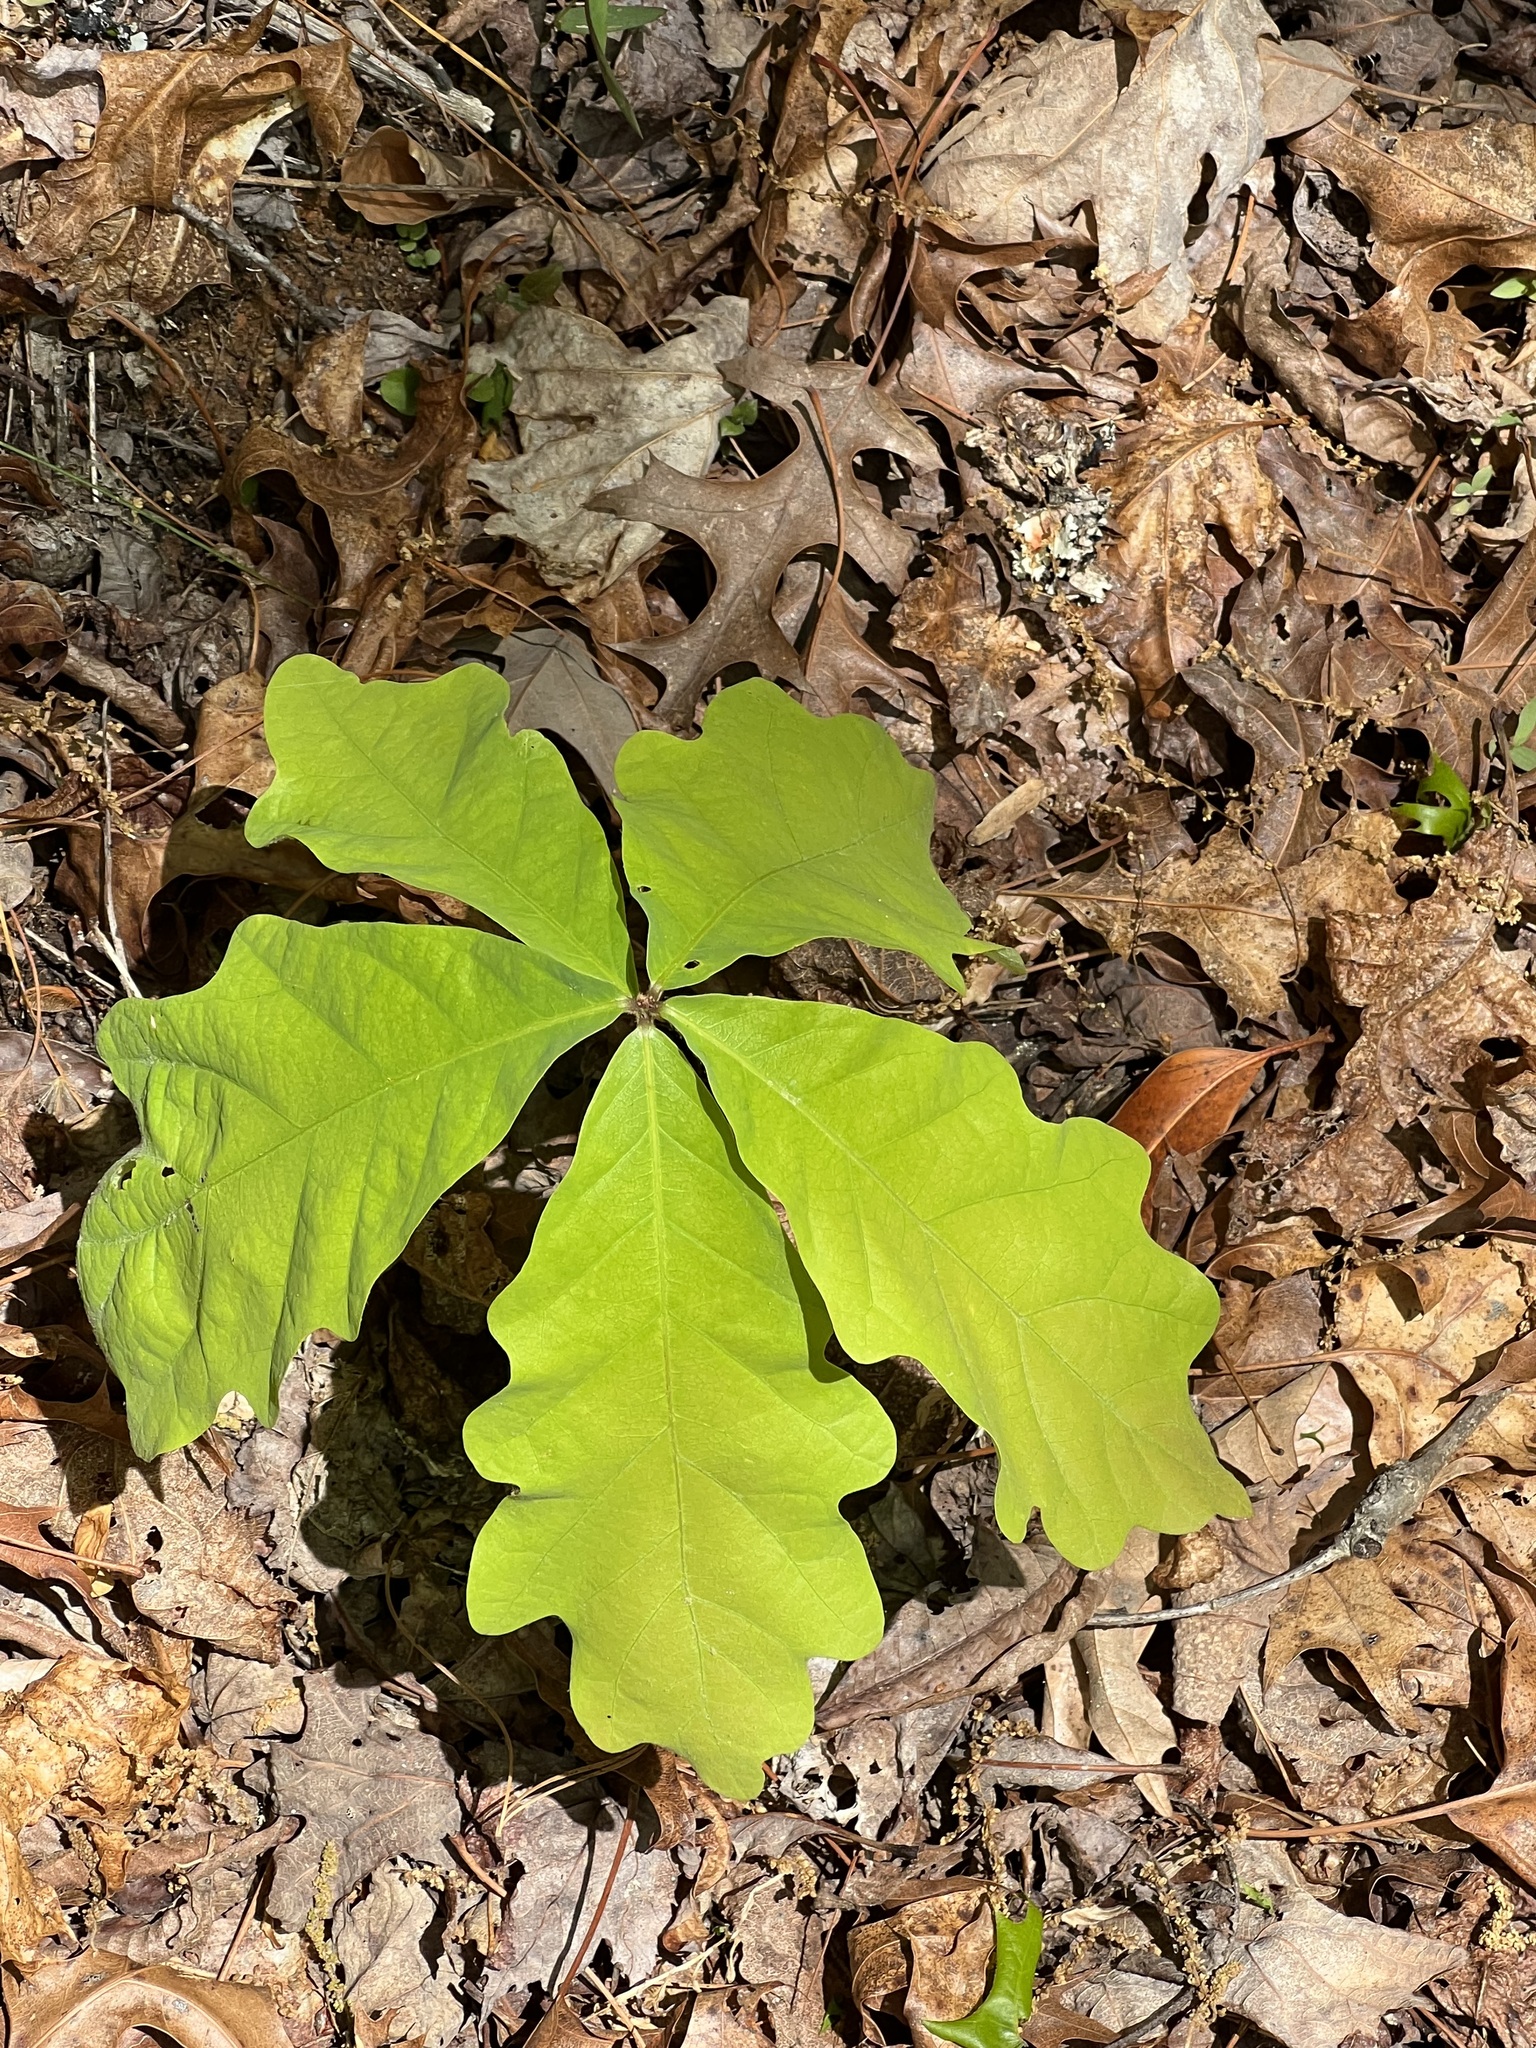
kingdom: Plantae
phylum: Tracheophyta
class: Magnoliopsida
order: Fagales
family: Fagaceae
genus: Quercus
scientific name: Quercus alba
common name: White oak
